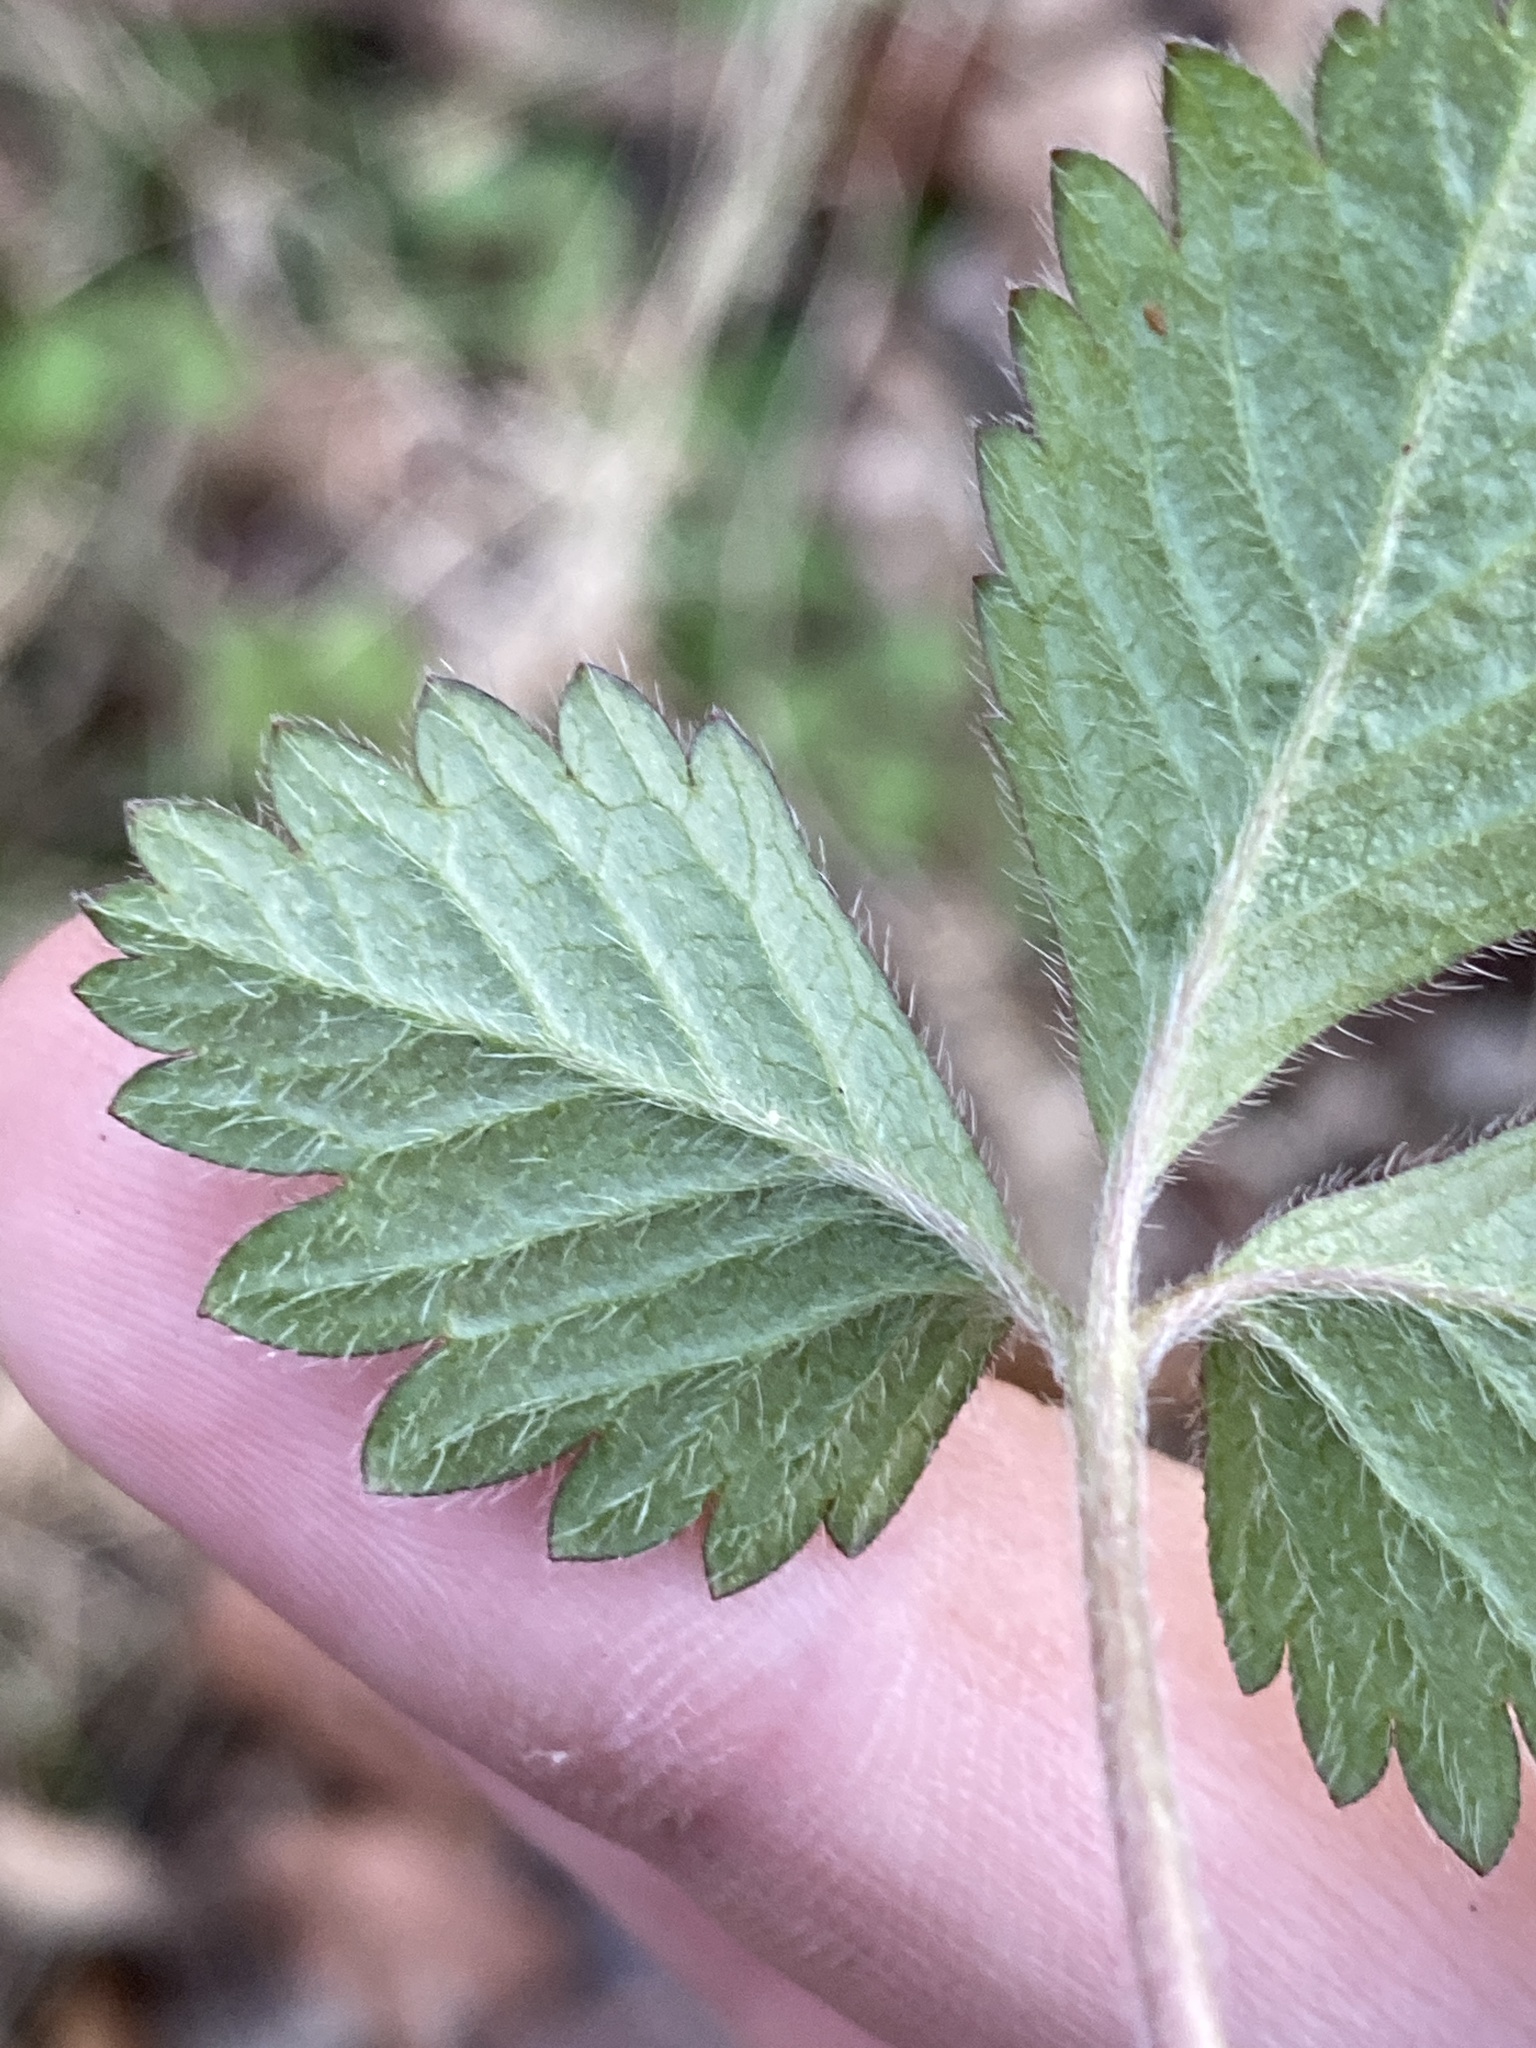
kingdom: Plantae
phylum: Tracheophyta
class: Magnoliopsida
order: Rosales
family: Rosaceae
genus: Potentilla
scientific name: Potentilla indica
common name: Yellow-flowered strawberry
